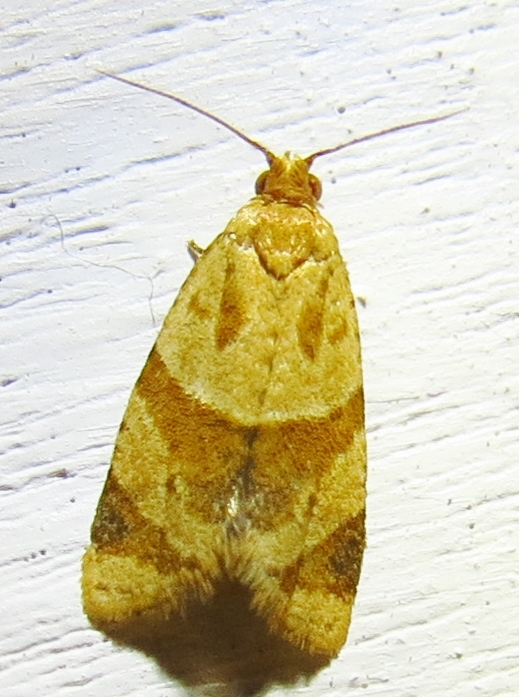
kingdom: Animalia
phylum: Arthropoda
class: Insecta
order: Lepidoptera
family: Tortricidae
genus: Clepsis
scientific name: Clepsis peritana
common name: Garden tortrix
